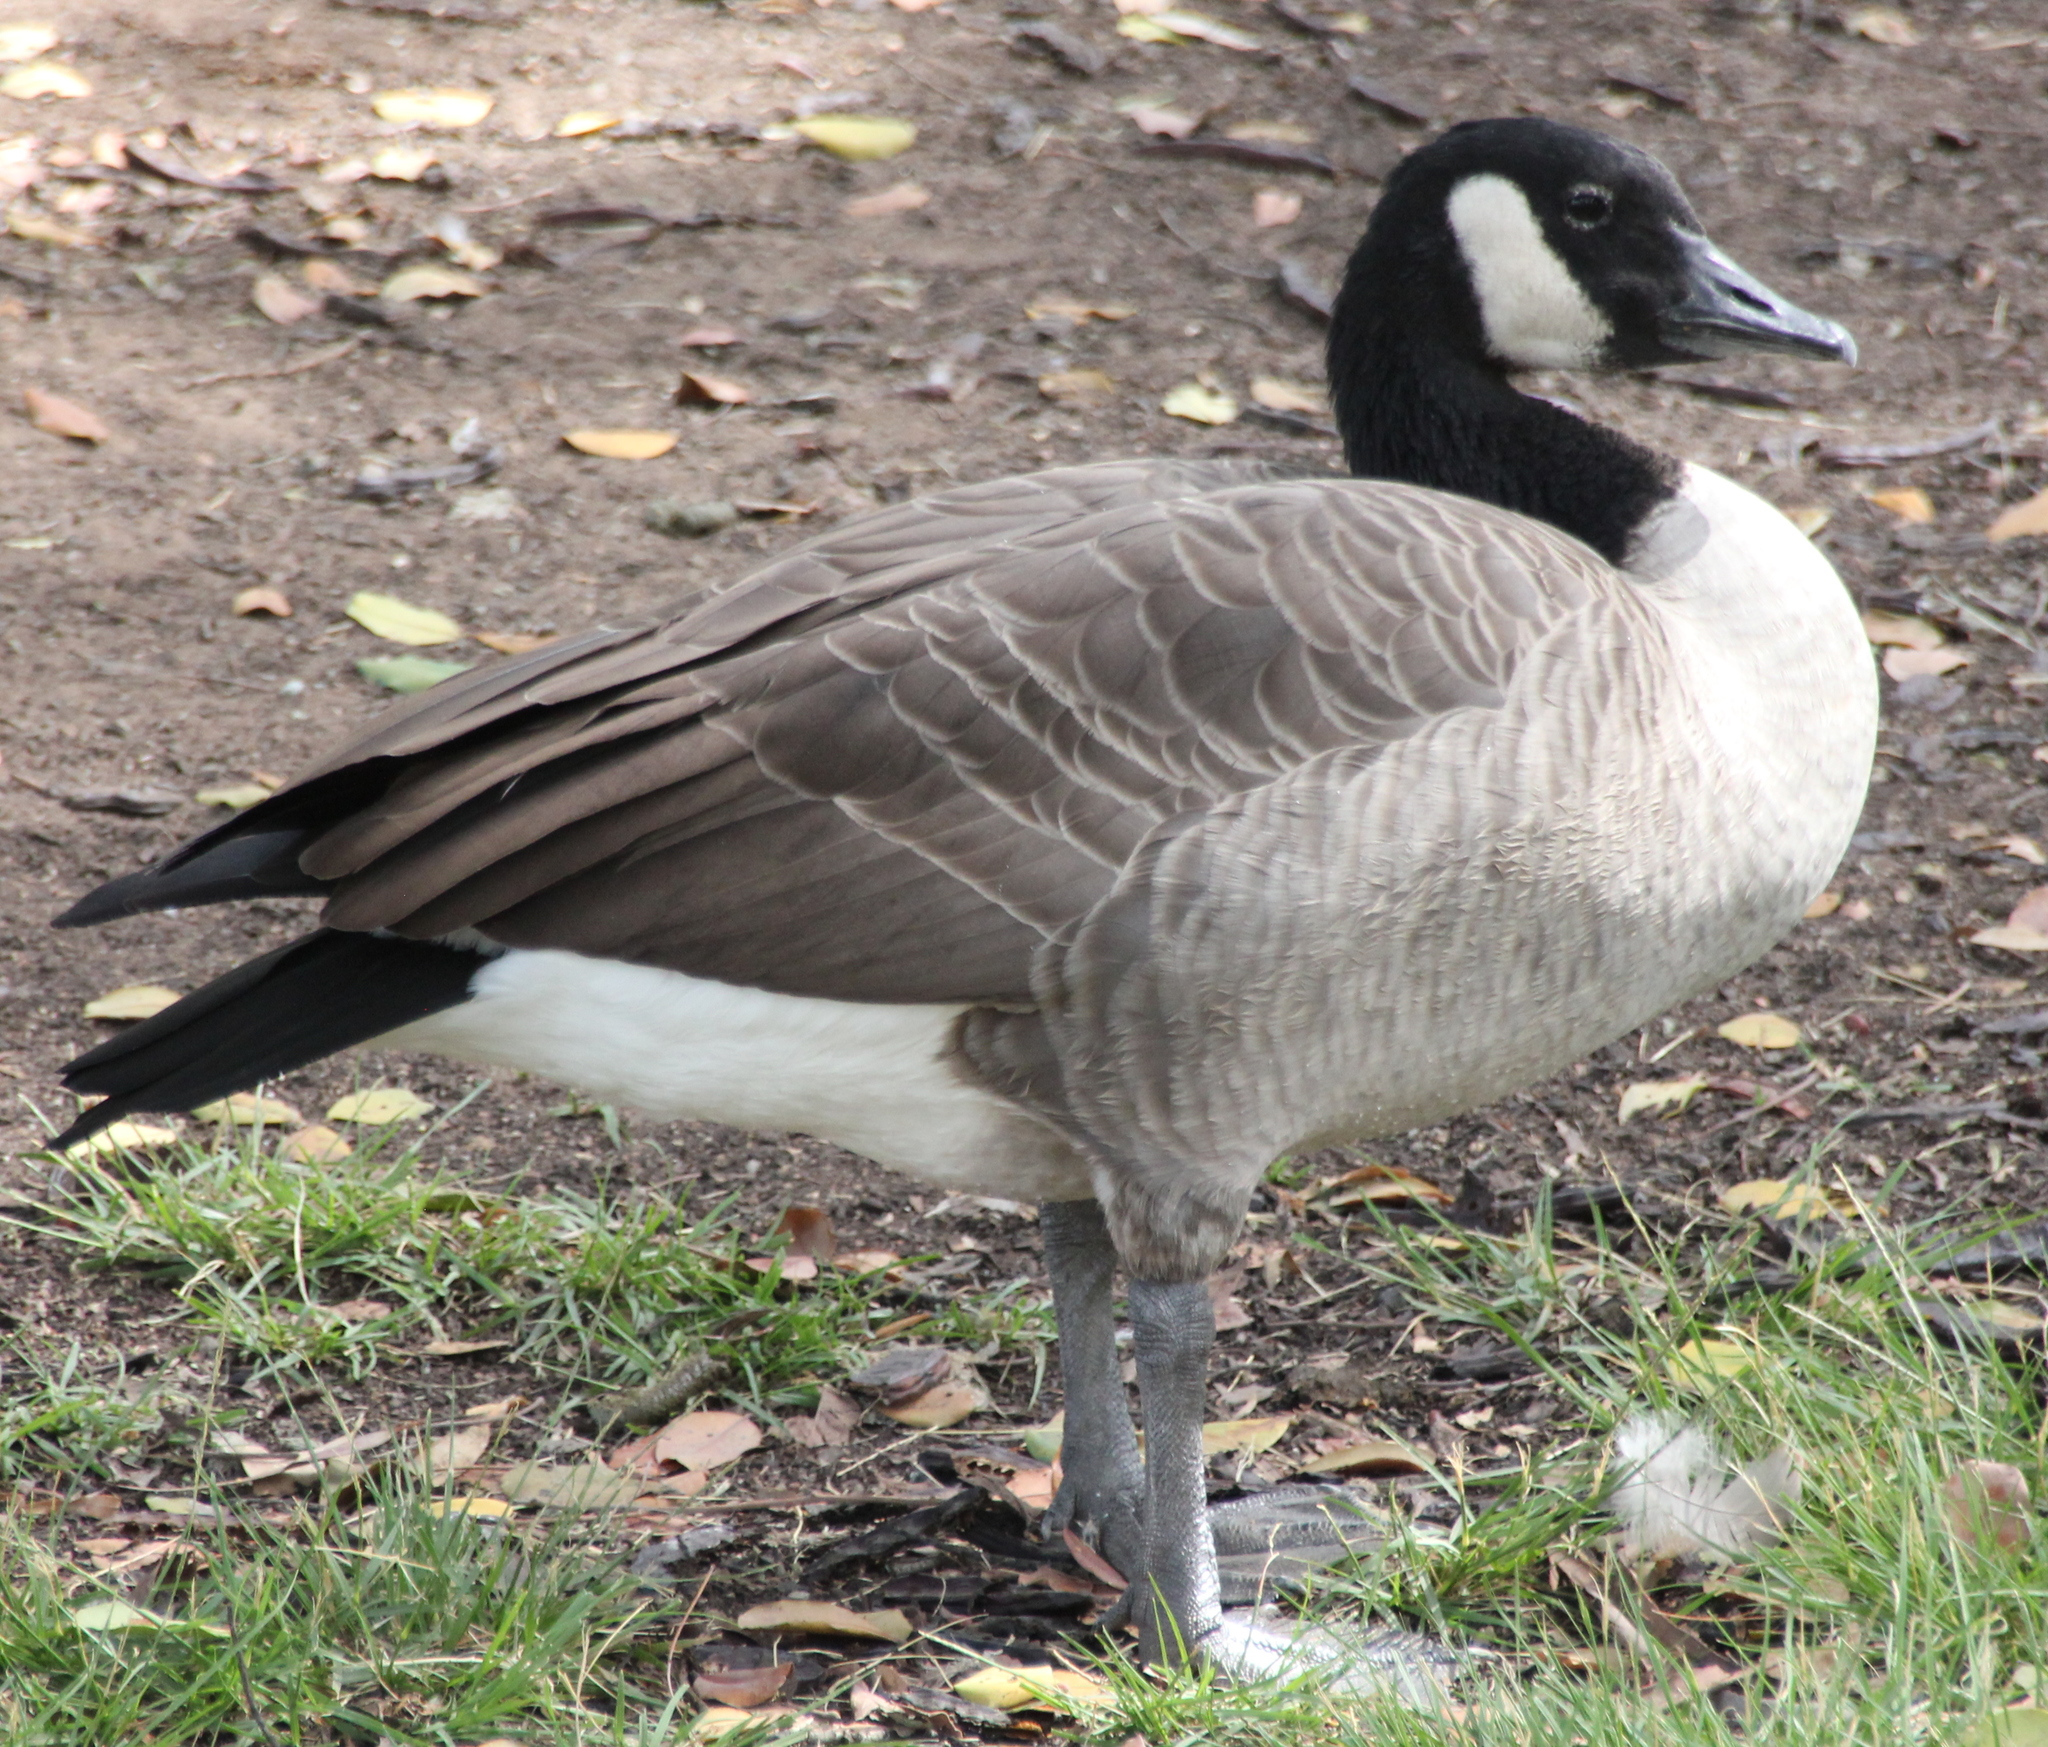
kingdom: Animalia
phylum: Chordata
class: Aves
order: Anseriformes
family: Anatidae
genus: Branta
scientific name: Branta canadensis
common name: Canada goose
